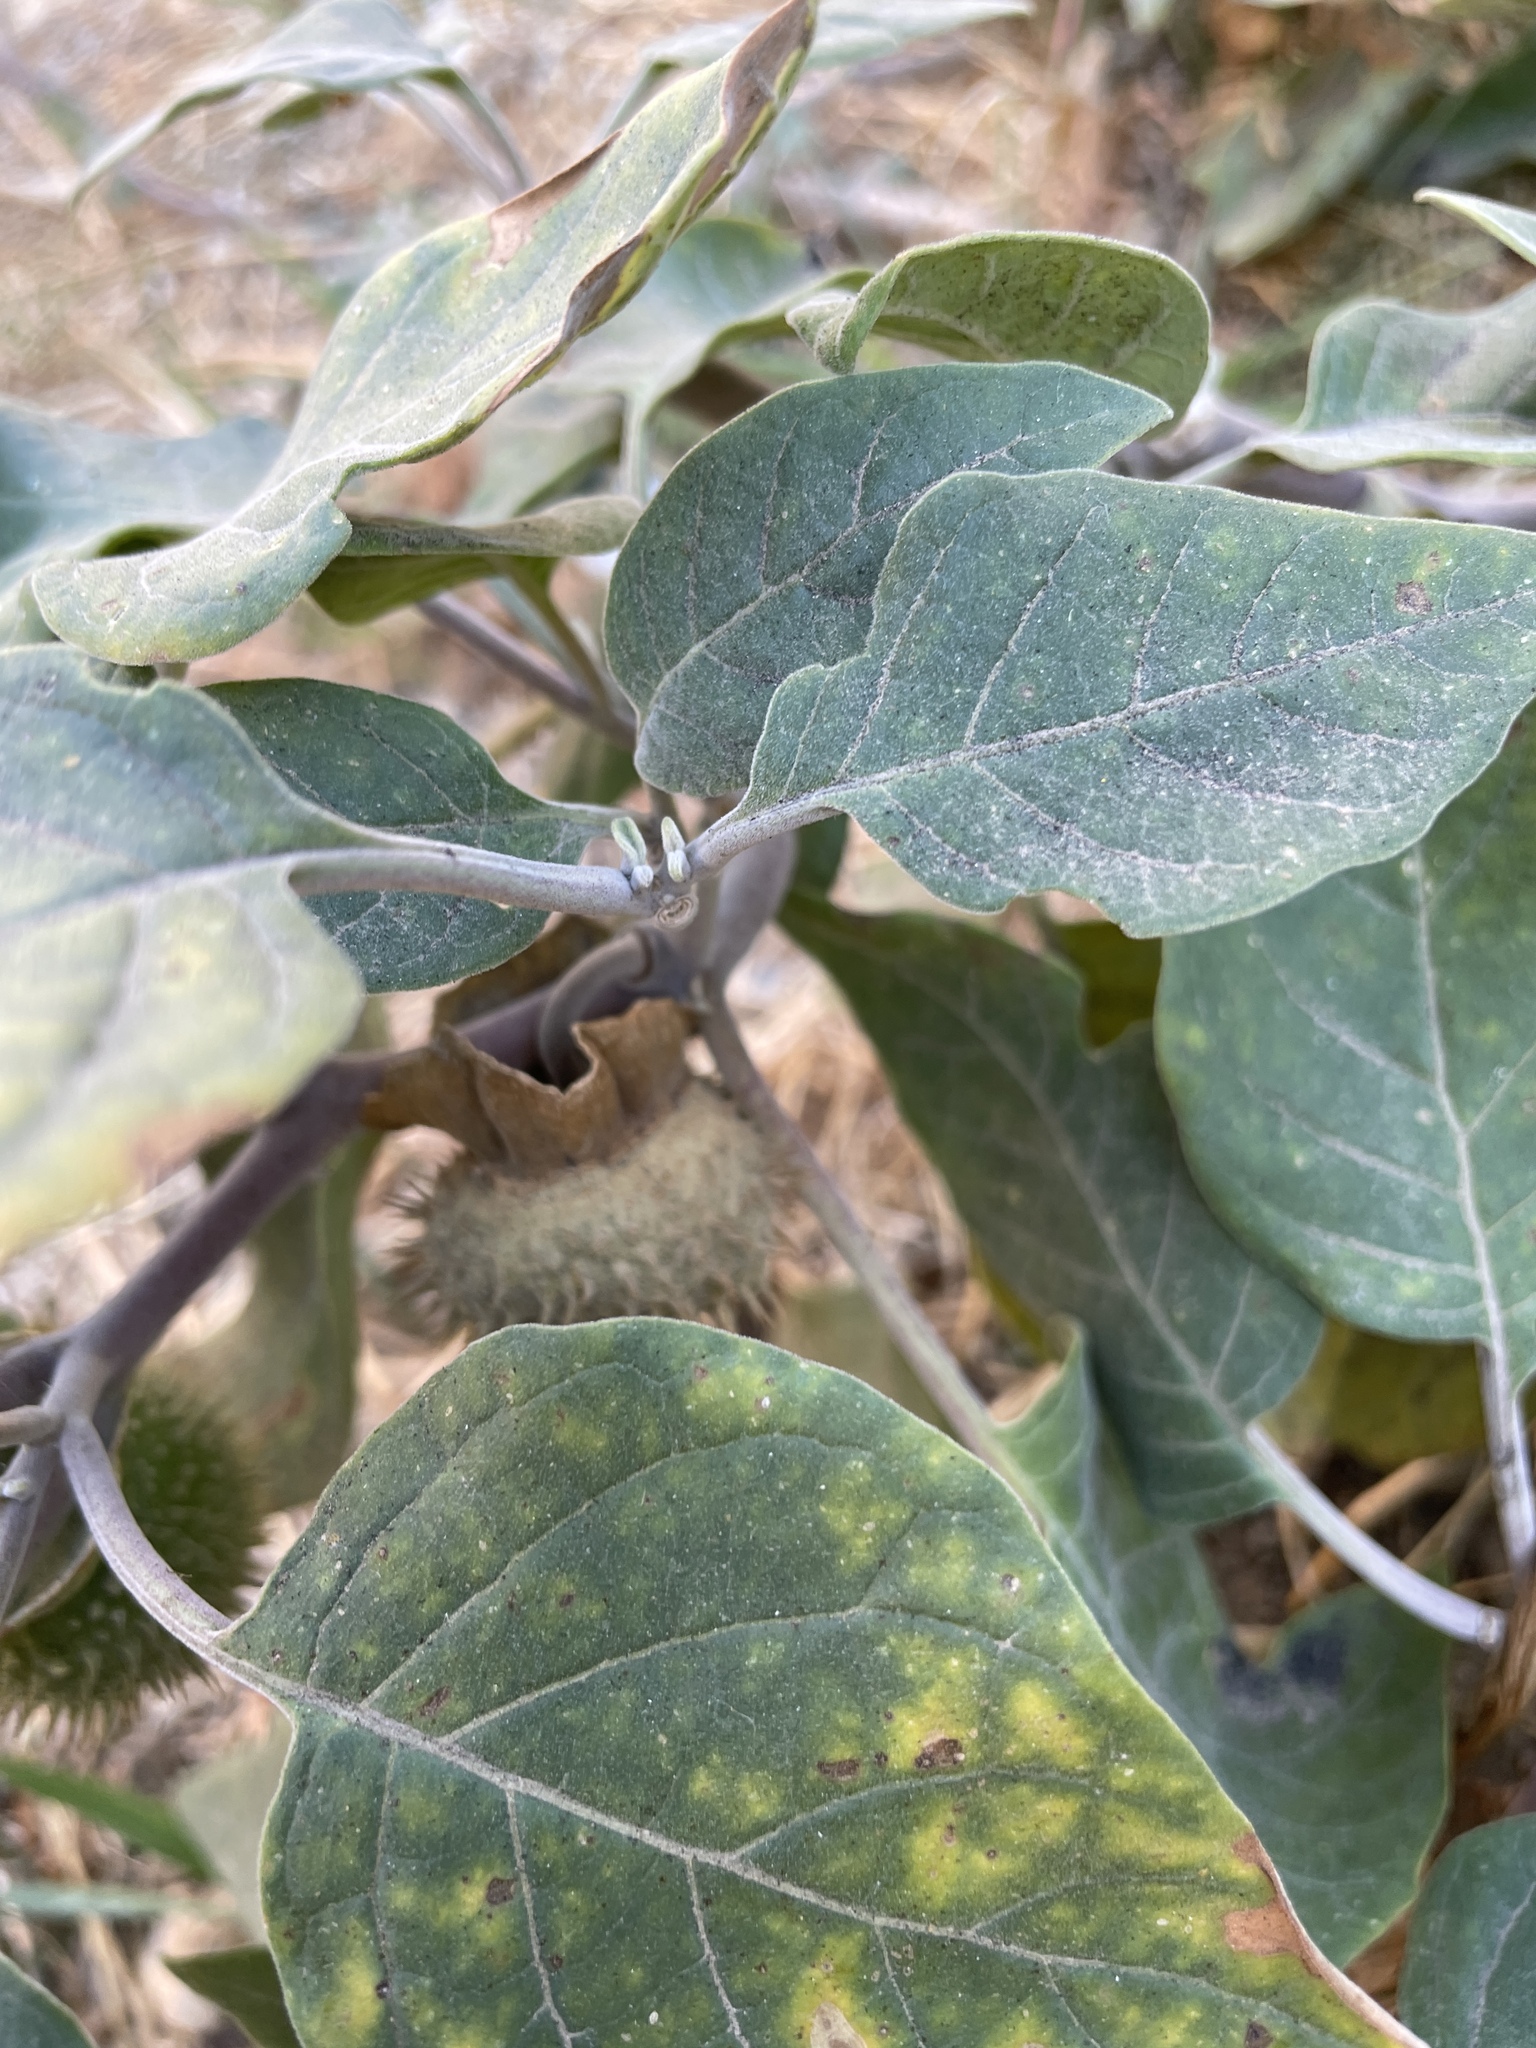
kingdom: Plantae
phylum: Tracheophyta
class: Magnoliopsida
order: Solanales
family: Solanaceae
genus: Datura
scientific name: Datura wrightii
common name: Sacred thorn-apple
